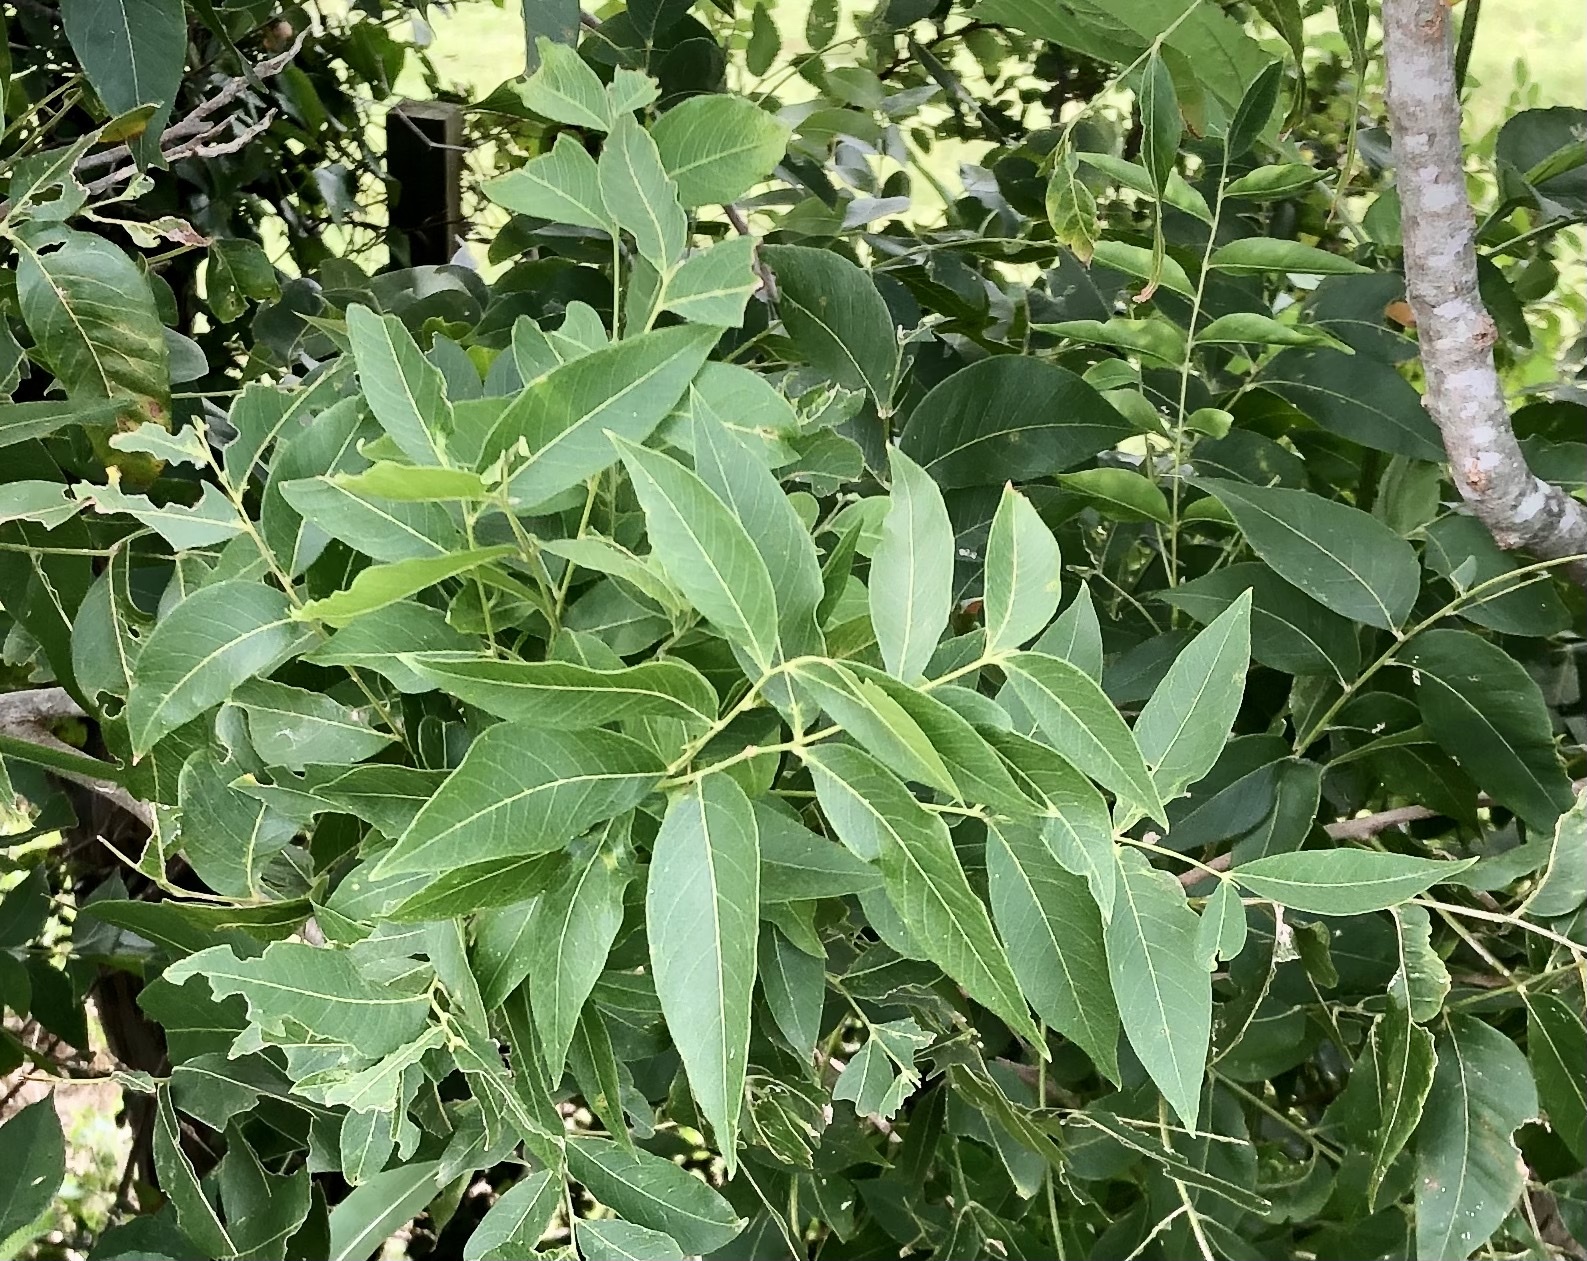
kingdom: Plantae
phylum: Tracheophyta
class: Magnoliopsida
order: Sapindales
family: Sapindaceae
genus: Sapindus
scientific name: Sapindus drummondii
